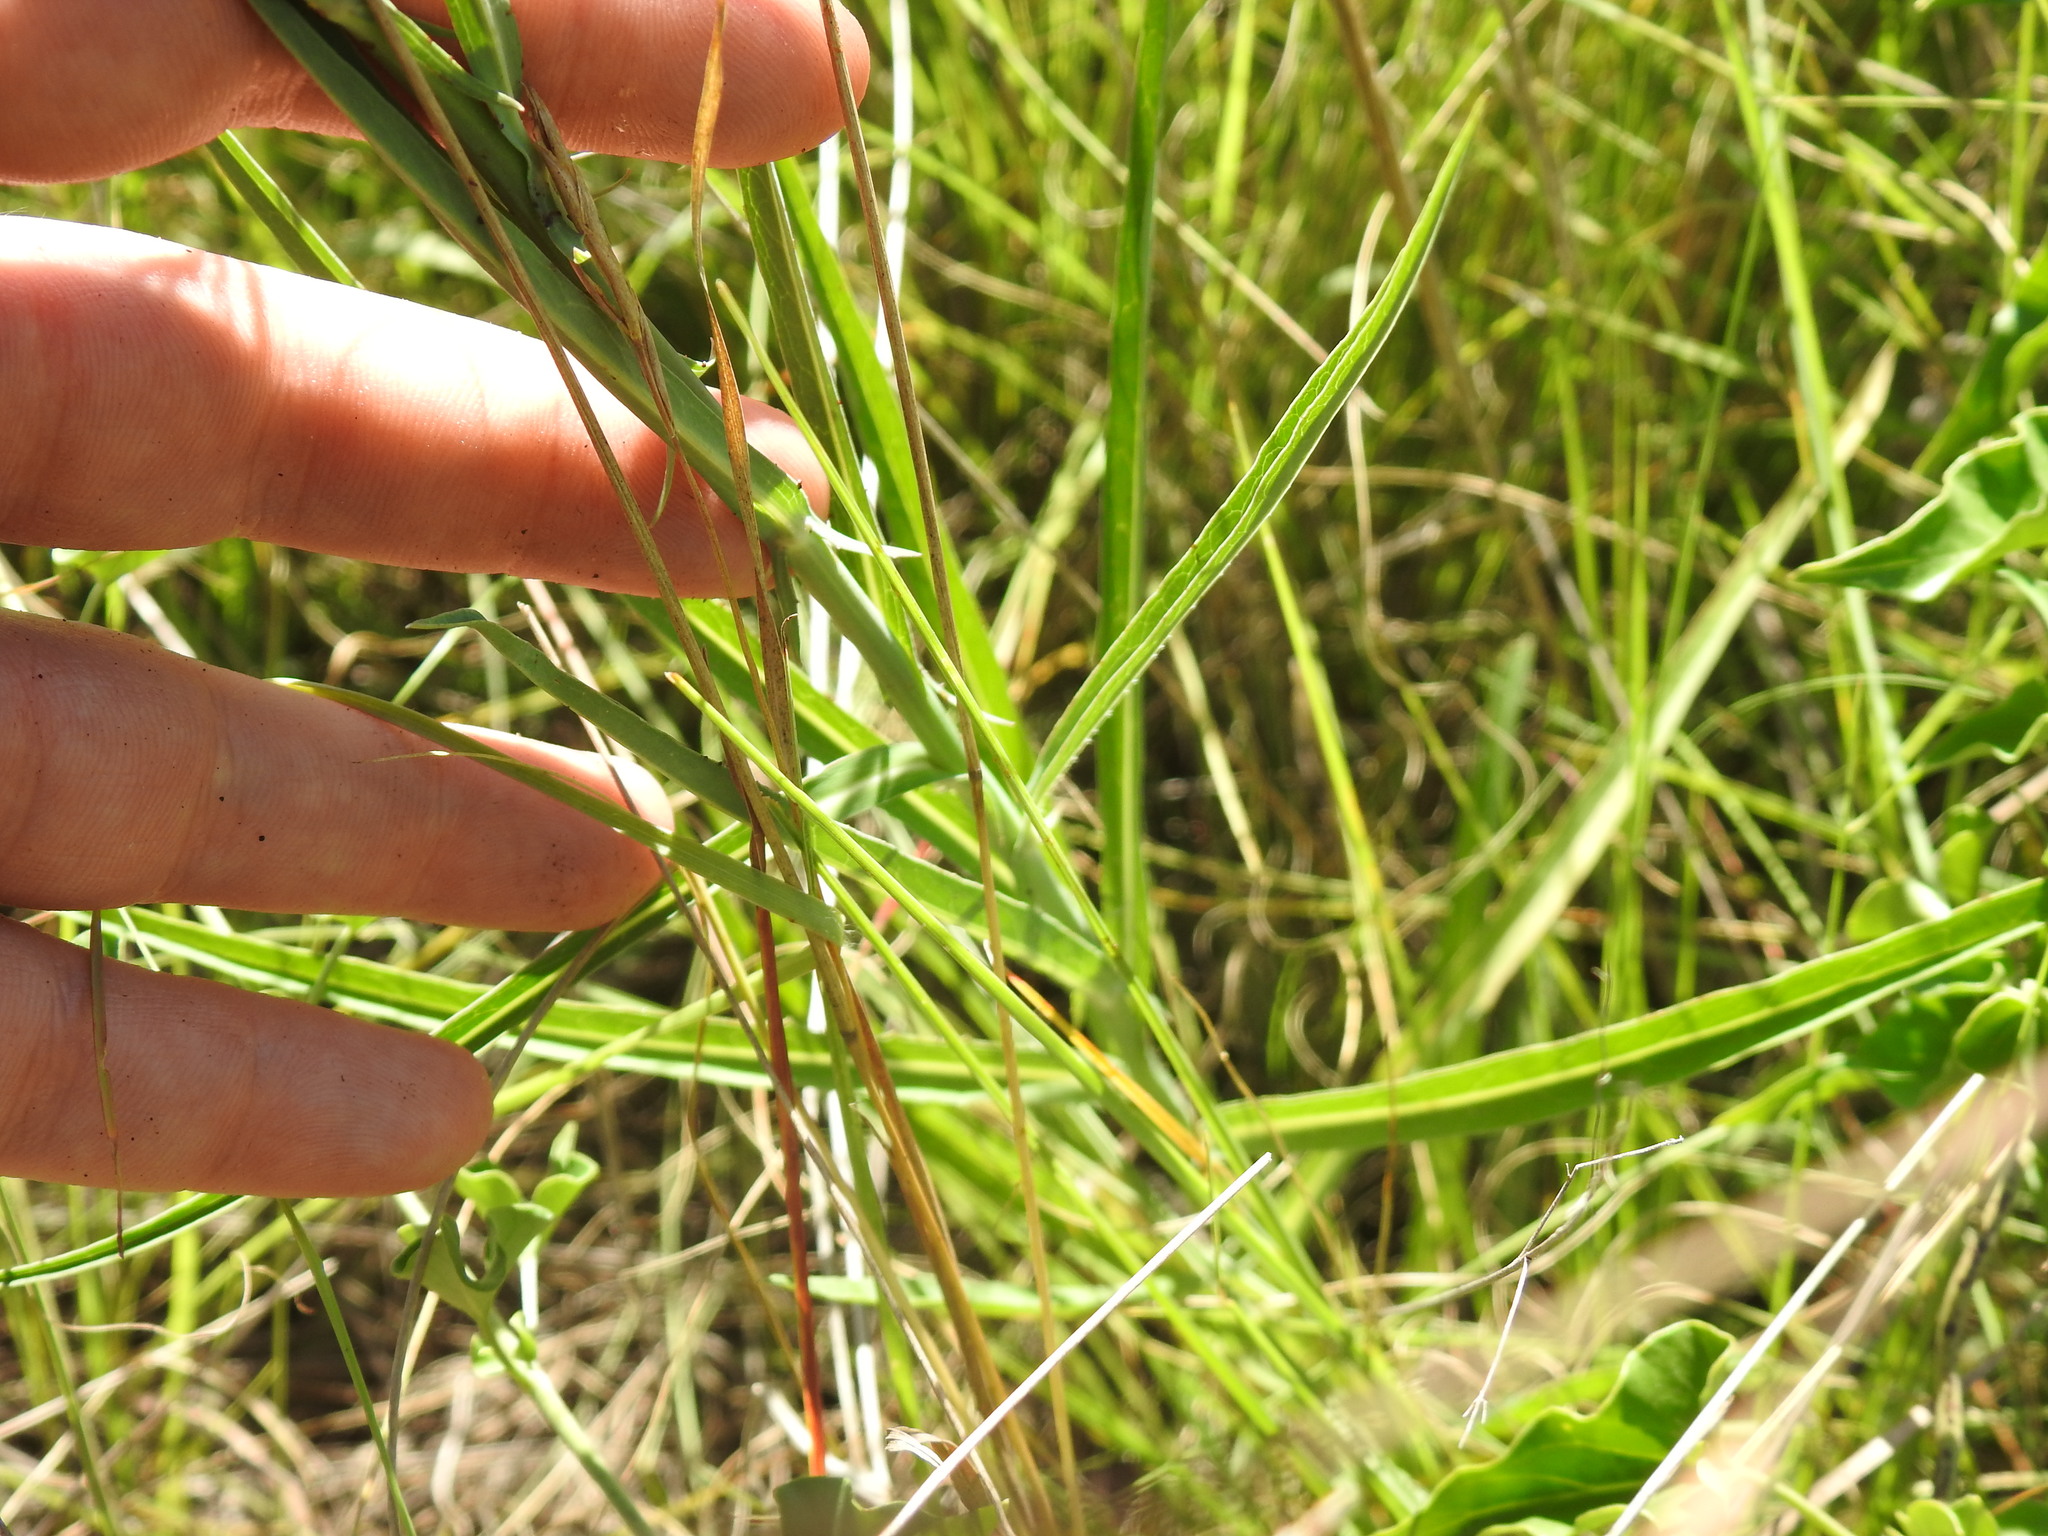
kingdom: Plantae
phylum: Tracheophyta
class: Magnoliopsida
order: Asterales
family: Asteraceae
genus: Lactuca
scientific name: Lactuca inermis
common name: Wild lettuce
